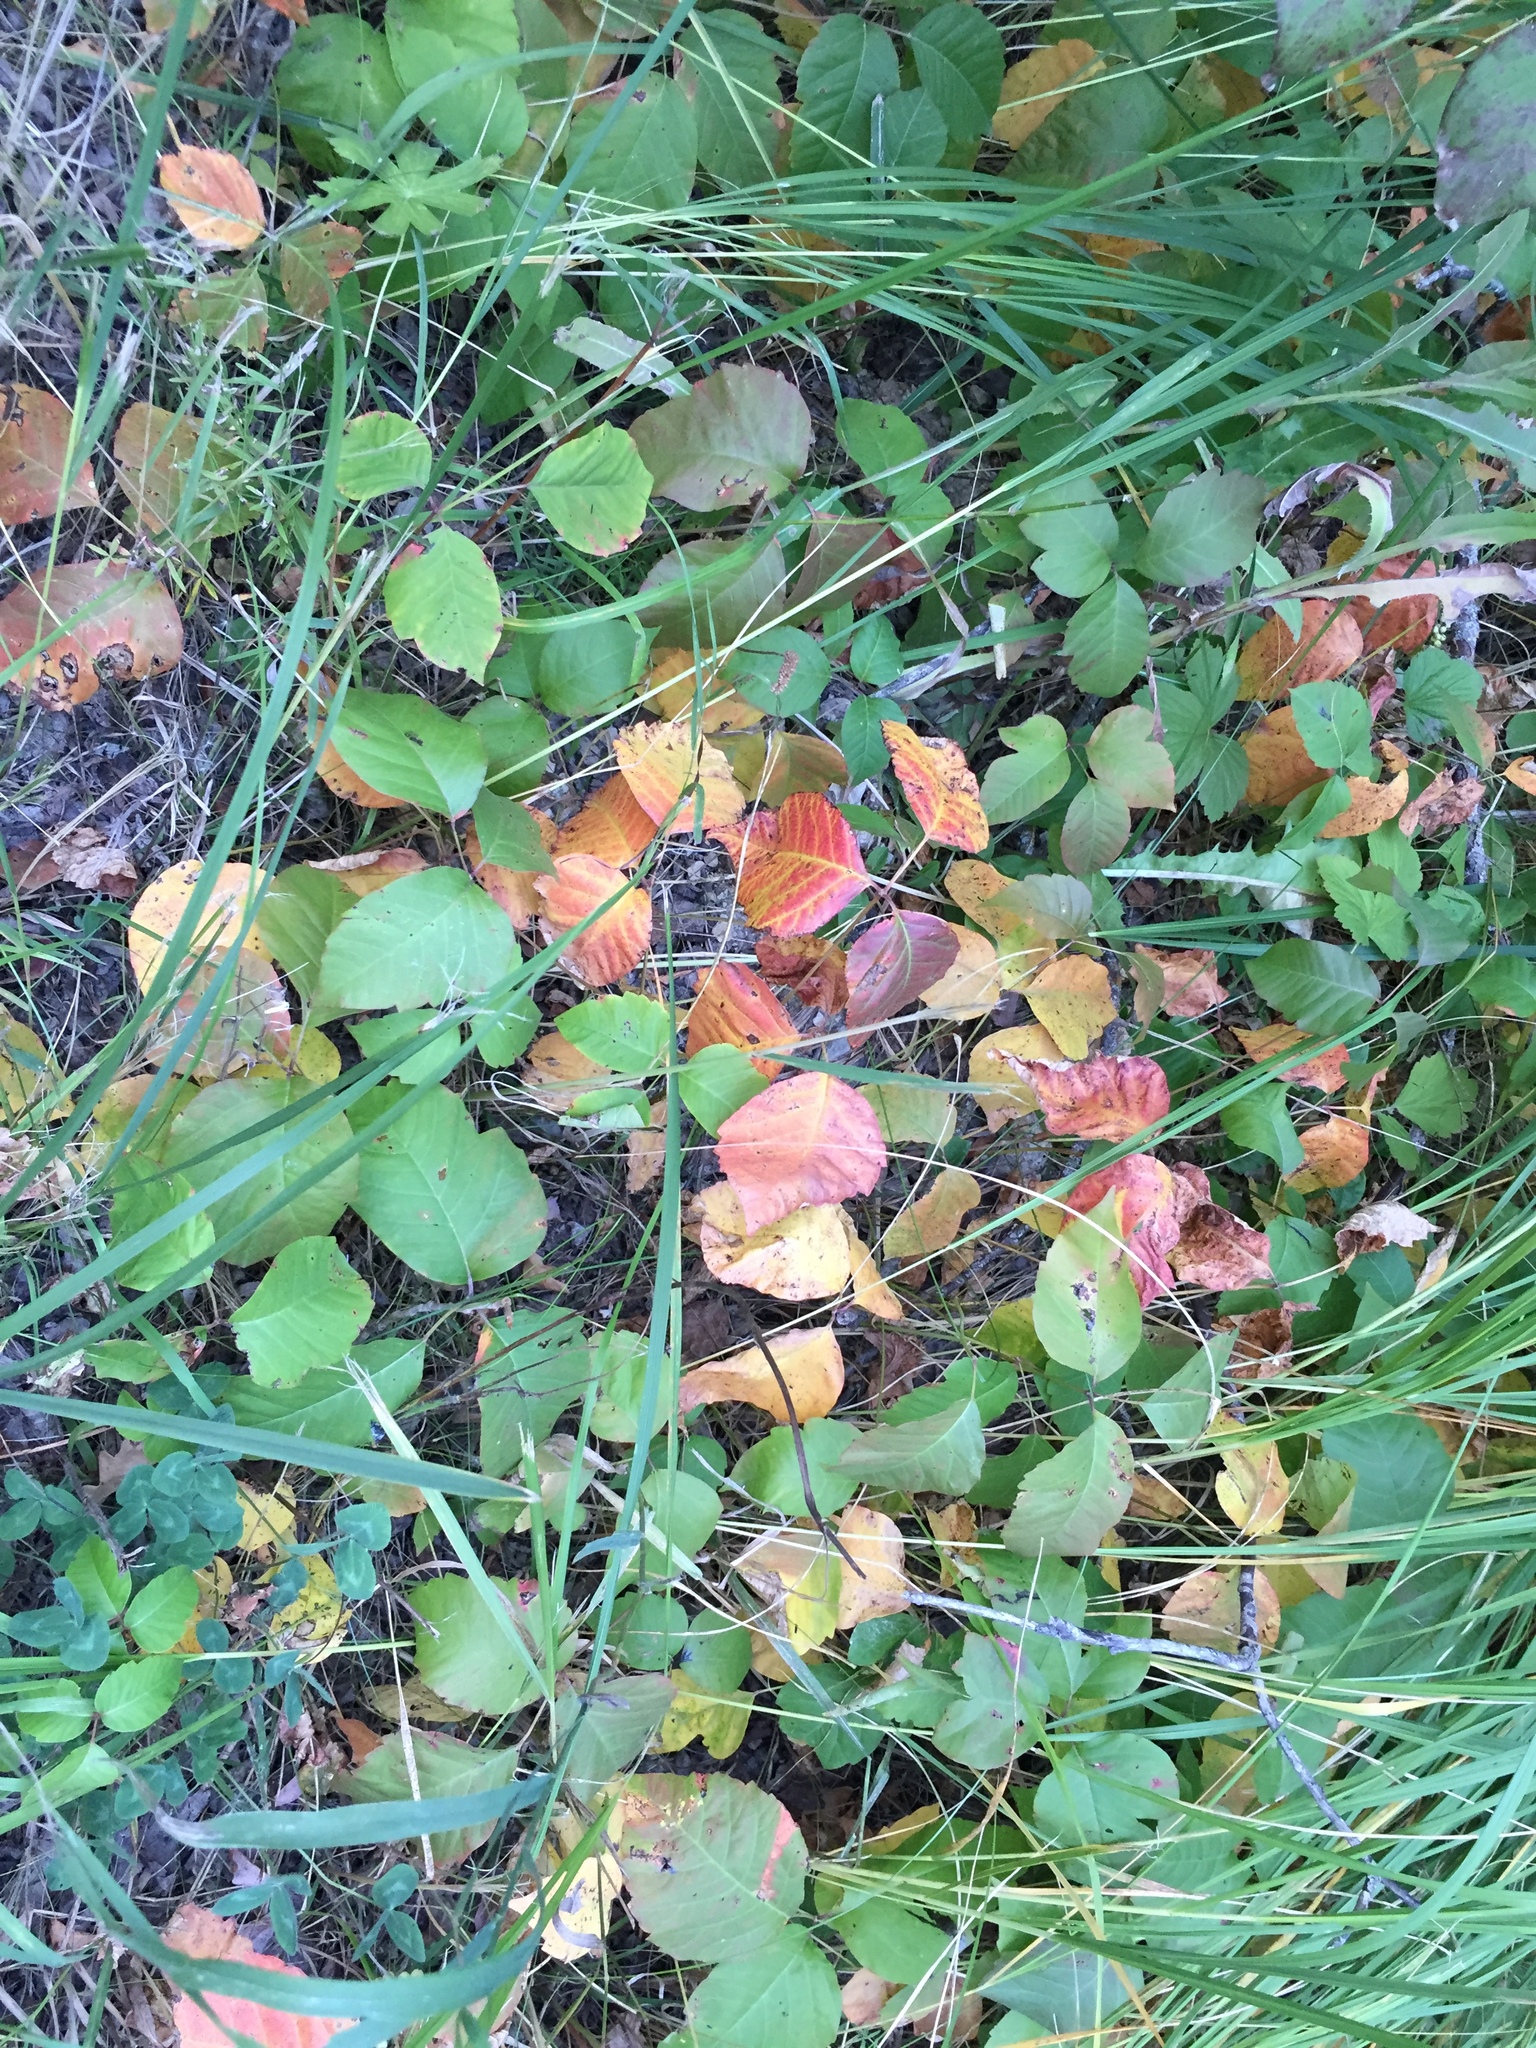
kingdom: Plantae
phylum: Tracheophyta
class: Magnoliopsida
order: Sapindales
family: Anacardiaceae
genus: Toxicodendron
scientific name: Toxicodendron rydbergii
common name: Rydberg's poison-ivy
